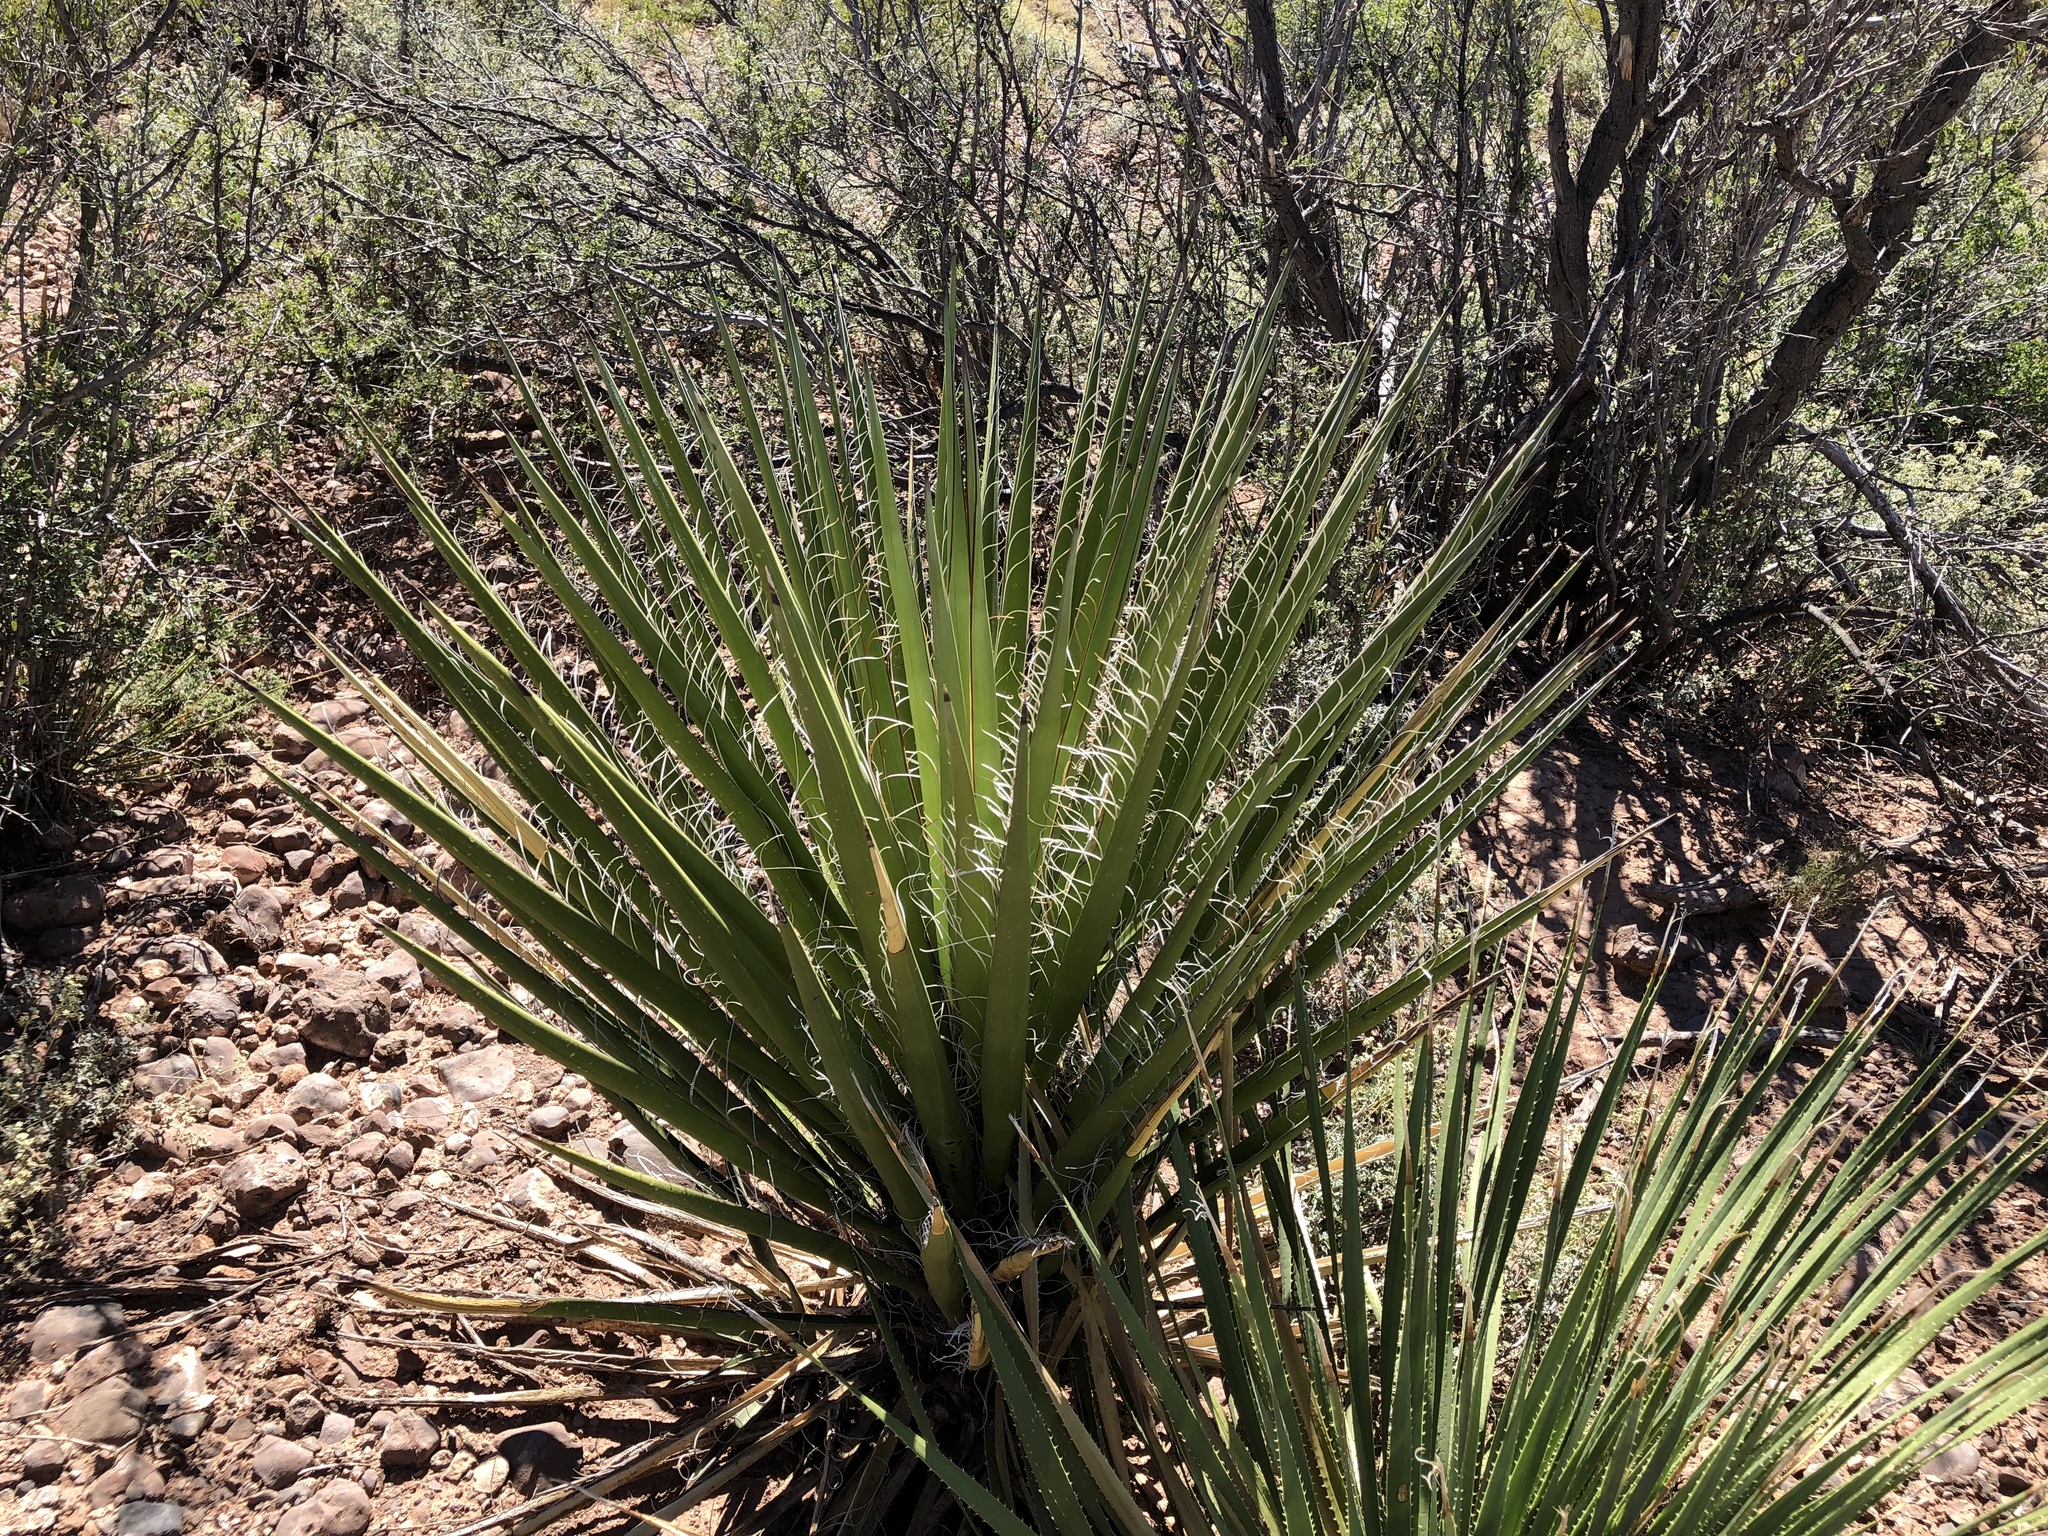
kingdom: Plantae
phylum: Tracheophyta
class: Liliopsida
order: Asparagales
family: Asparagaceae
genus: Yucca
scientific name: Yucca treculiana
